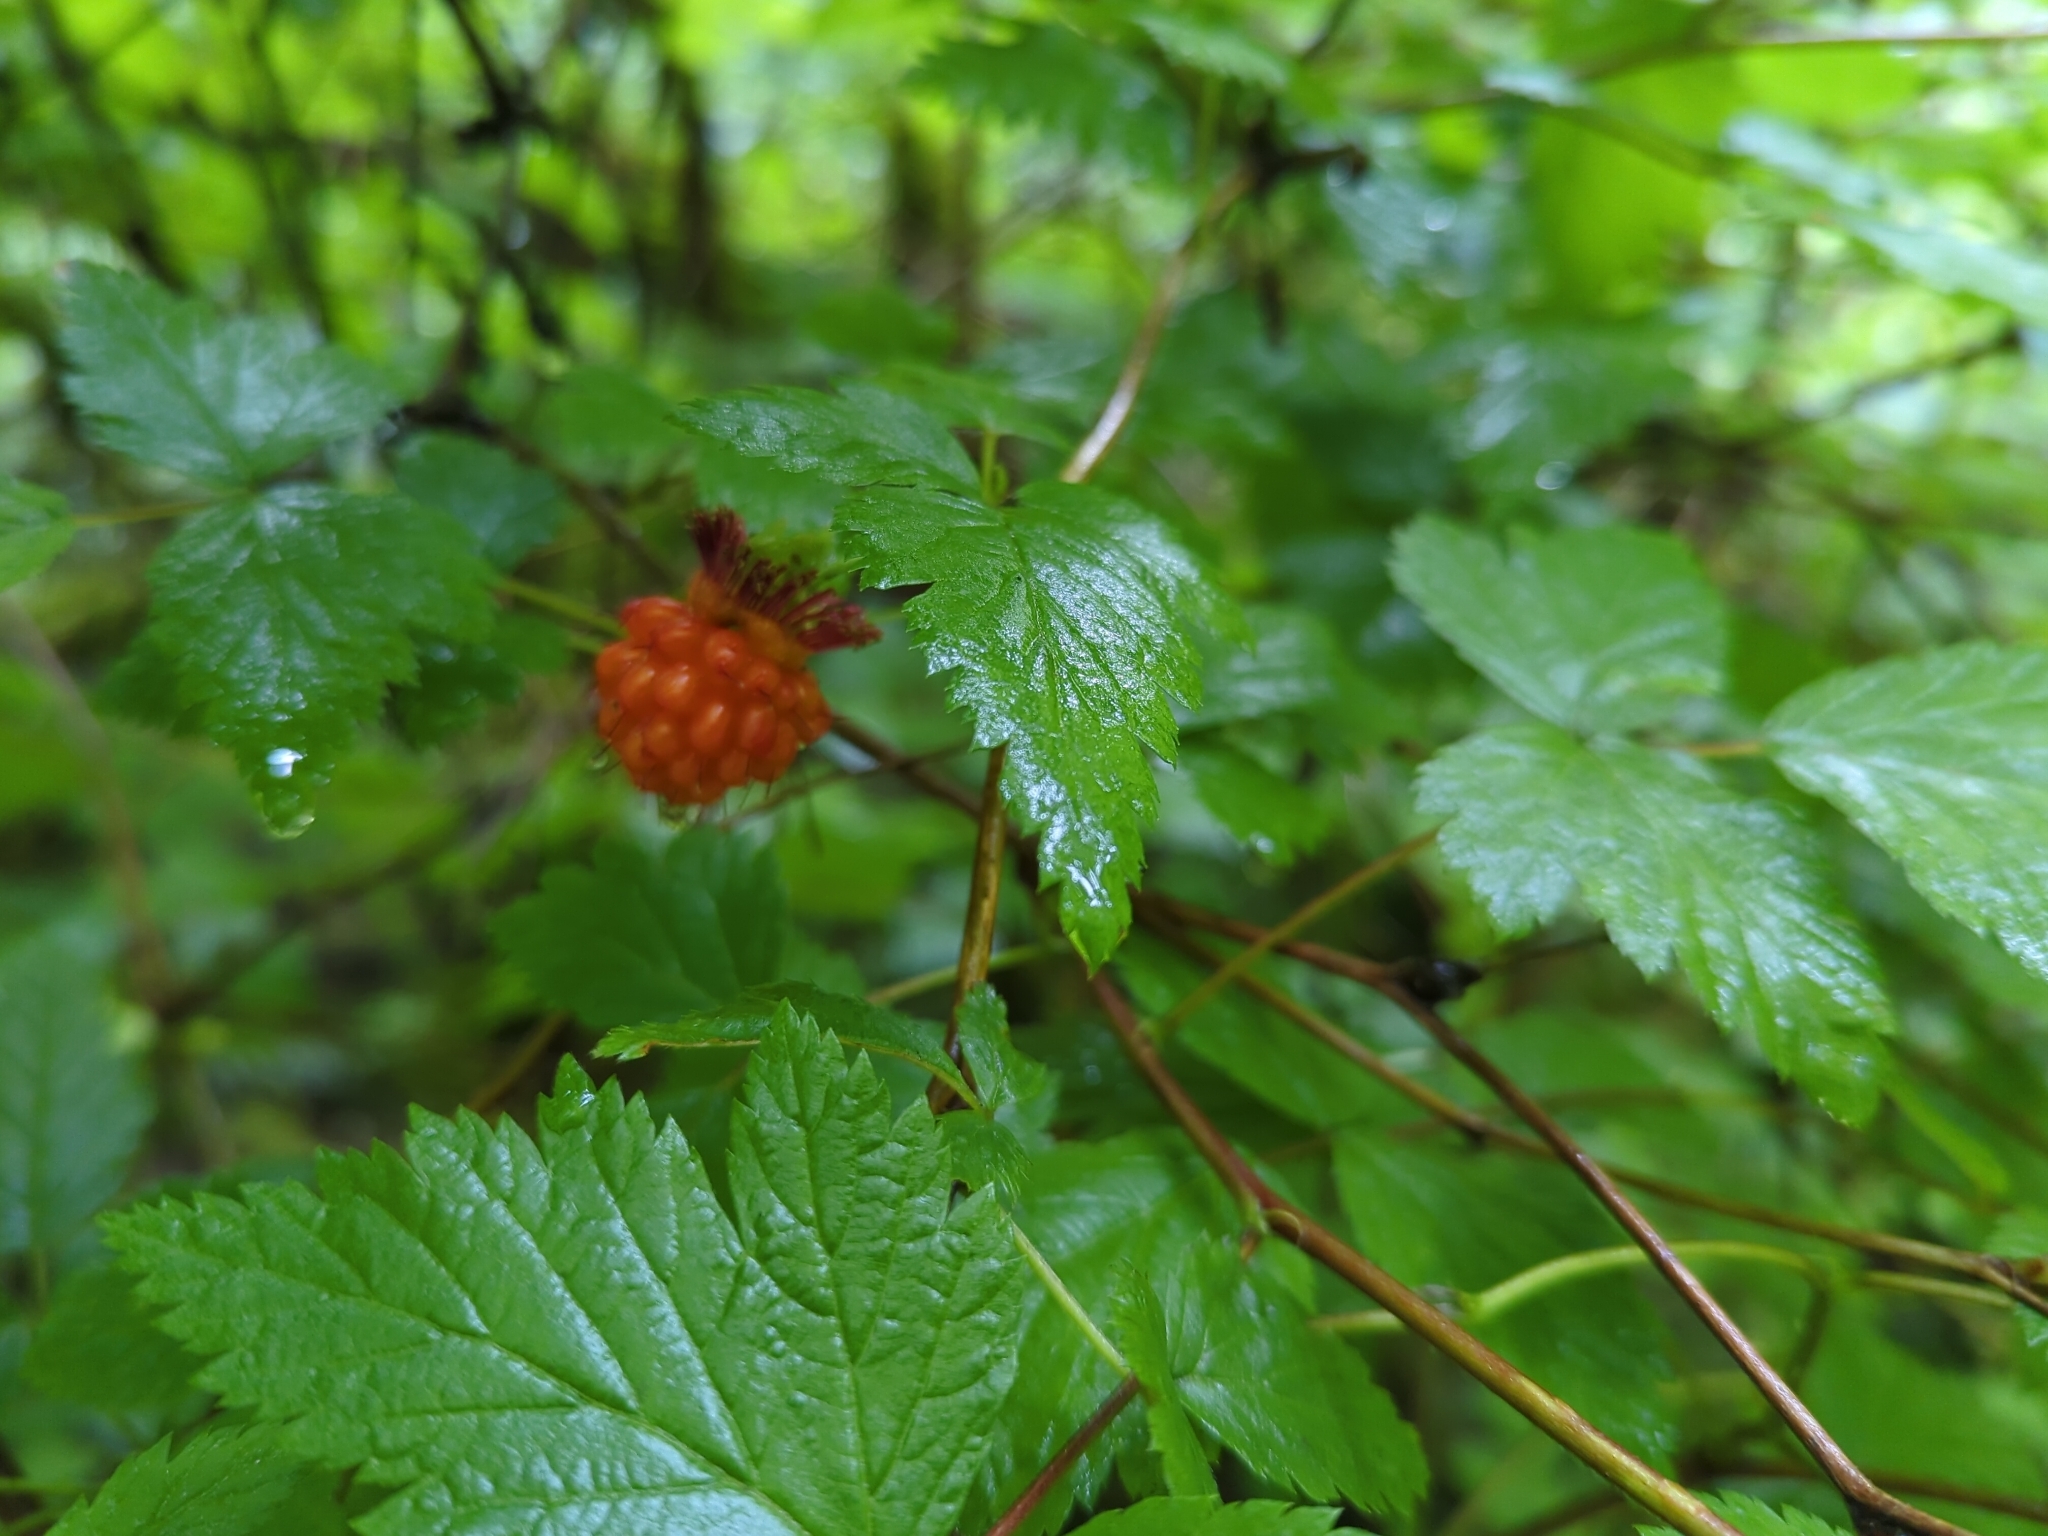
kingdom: Plantae
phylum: Tracheophyta
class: Magnoliopsida
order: Rosales
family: Rosaceae
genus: Rubus
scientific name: Rubus spectabilis
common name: Salmonberry
